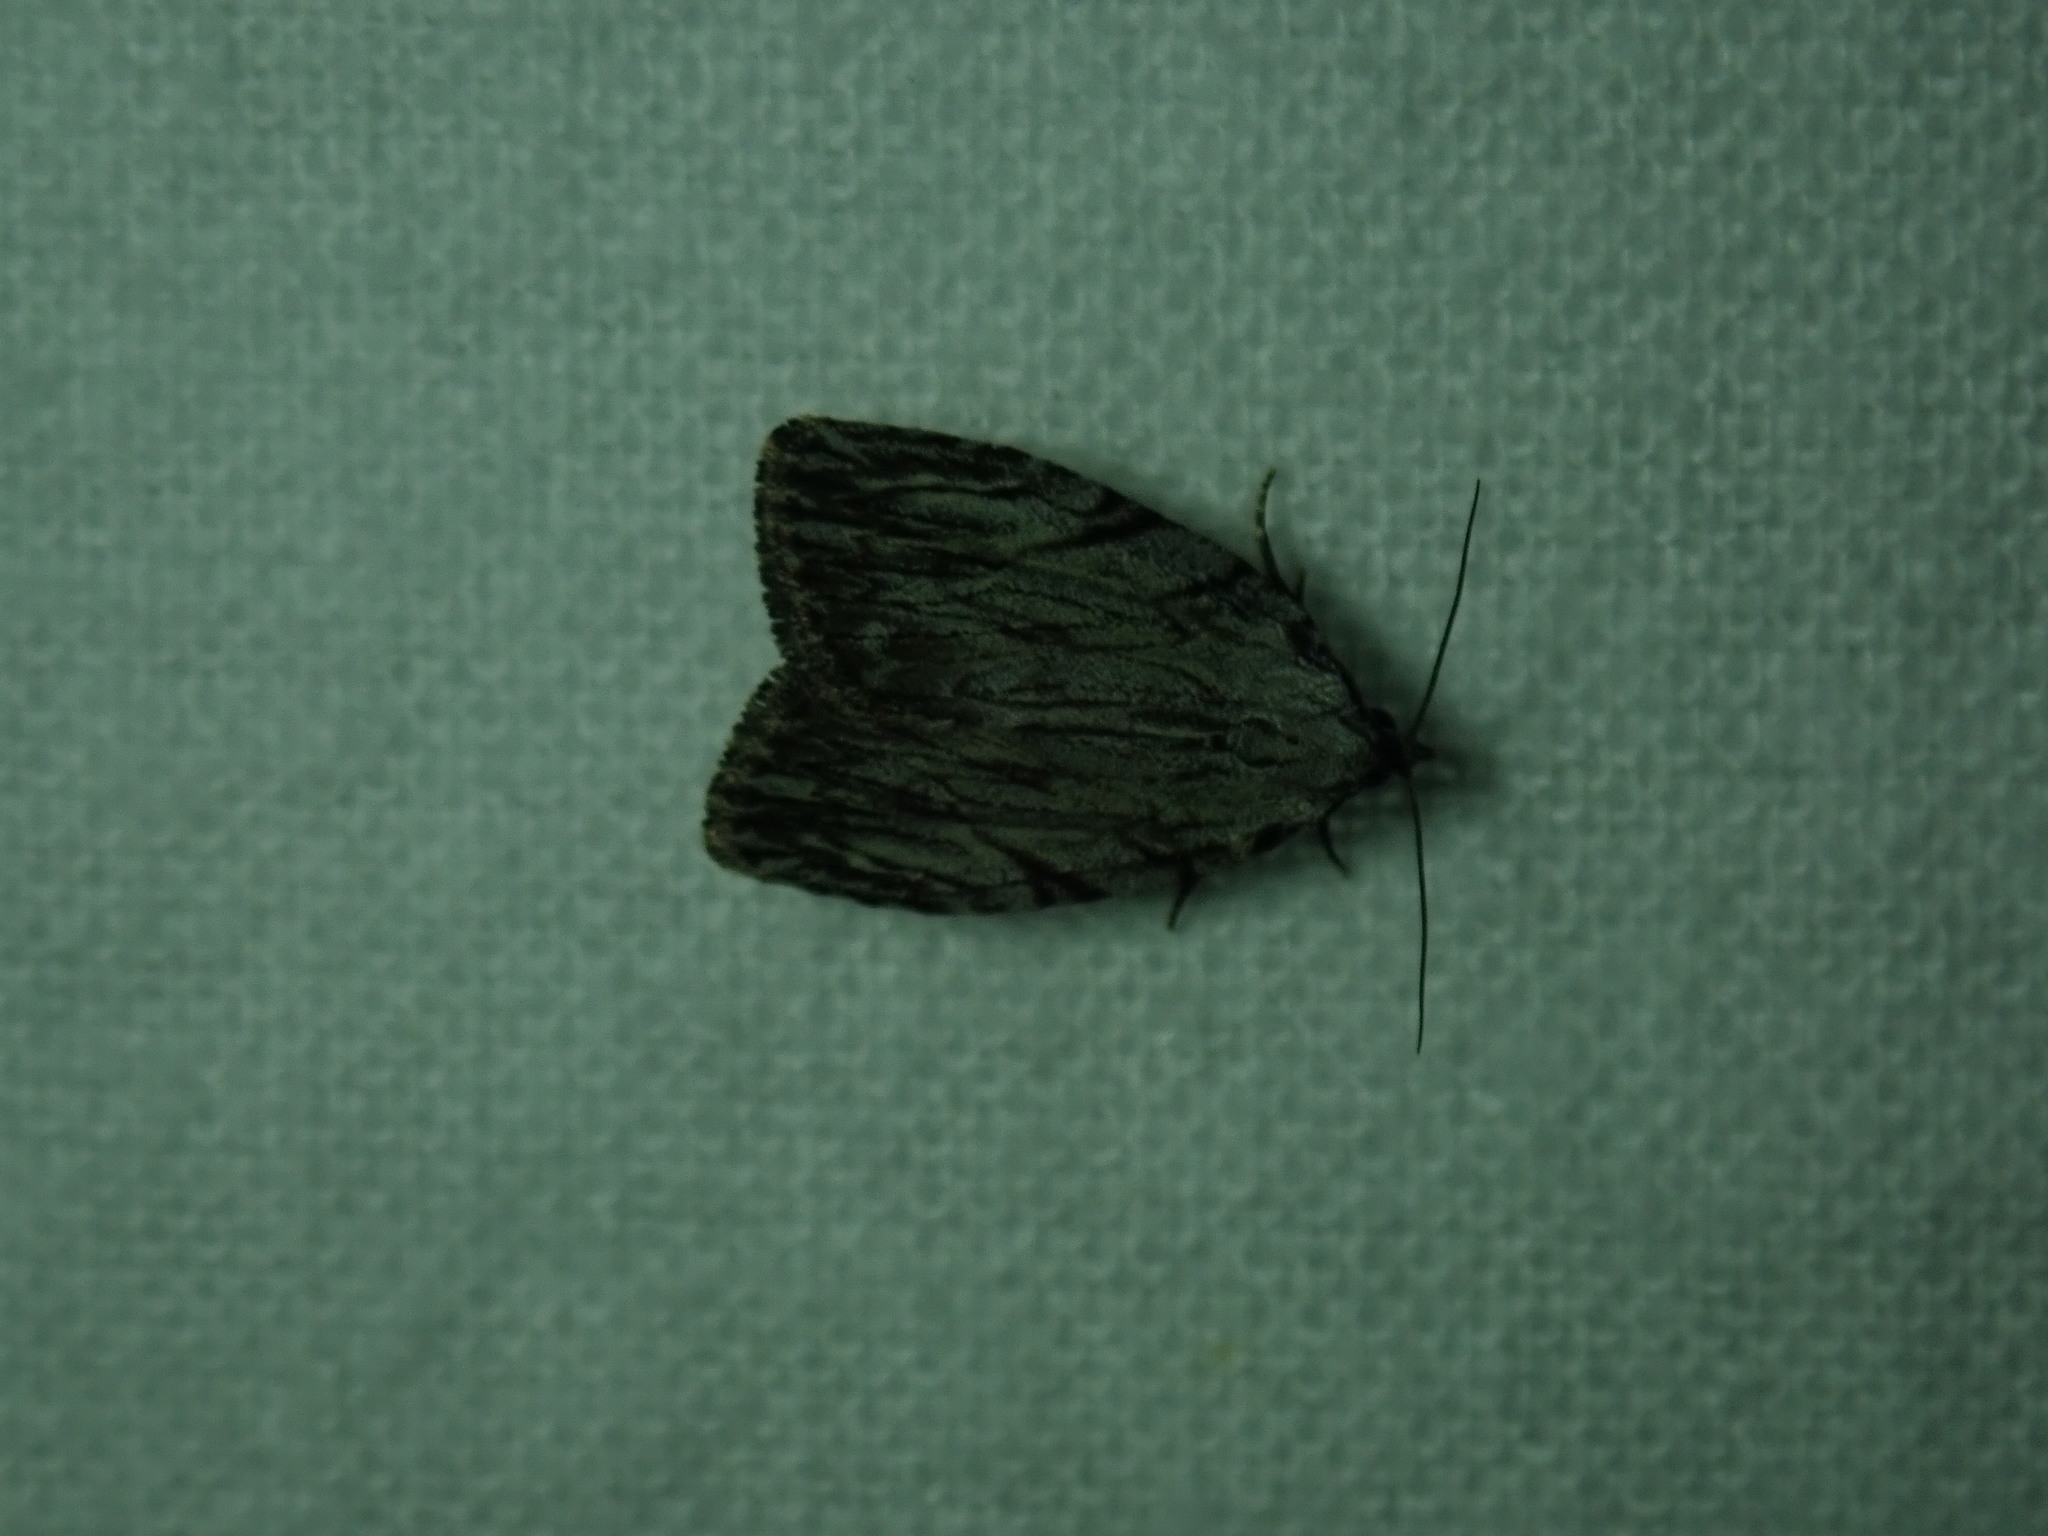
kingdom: Animalia
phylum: Arthropoda
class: Insecta
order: Lepidoptera
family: Noctuidae
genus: Balsa
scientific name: Balsa tristrigella
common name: Three-lined balsa moth
